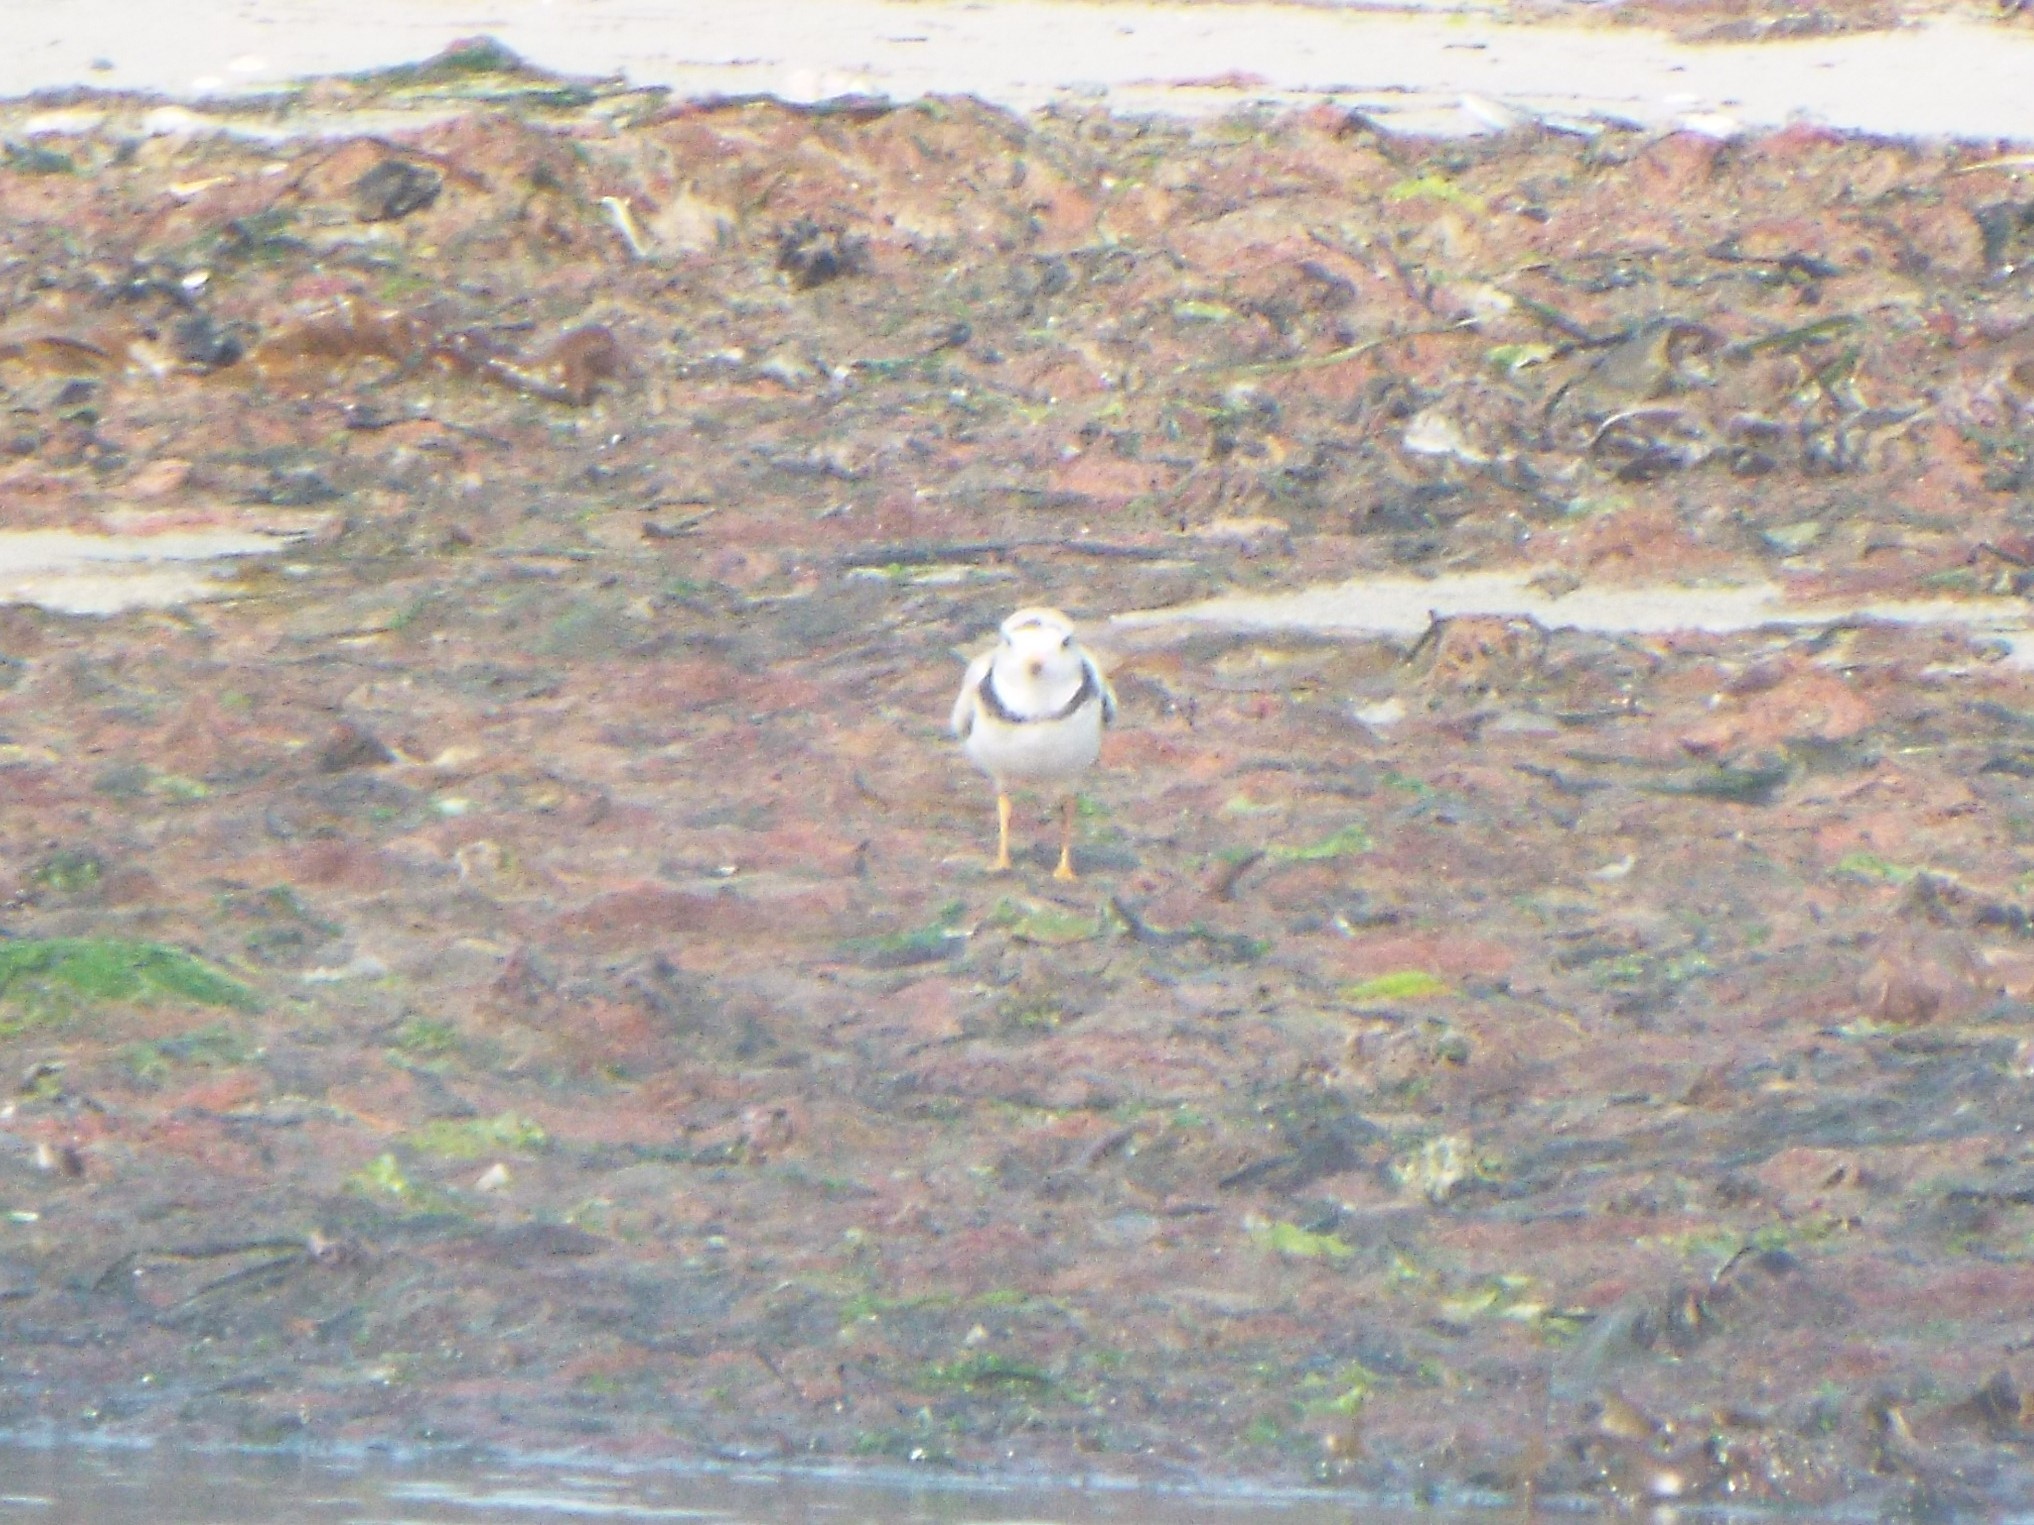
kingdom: Animalia
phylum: Chordata
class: Aves
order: Charadriiformes
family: Charadriidae
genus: Charadrius
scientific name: Charadrius melodus
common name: Piping plover
